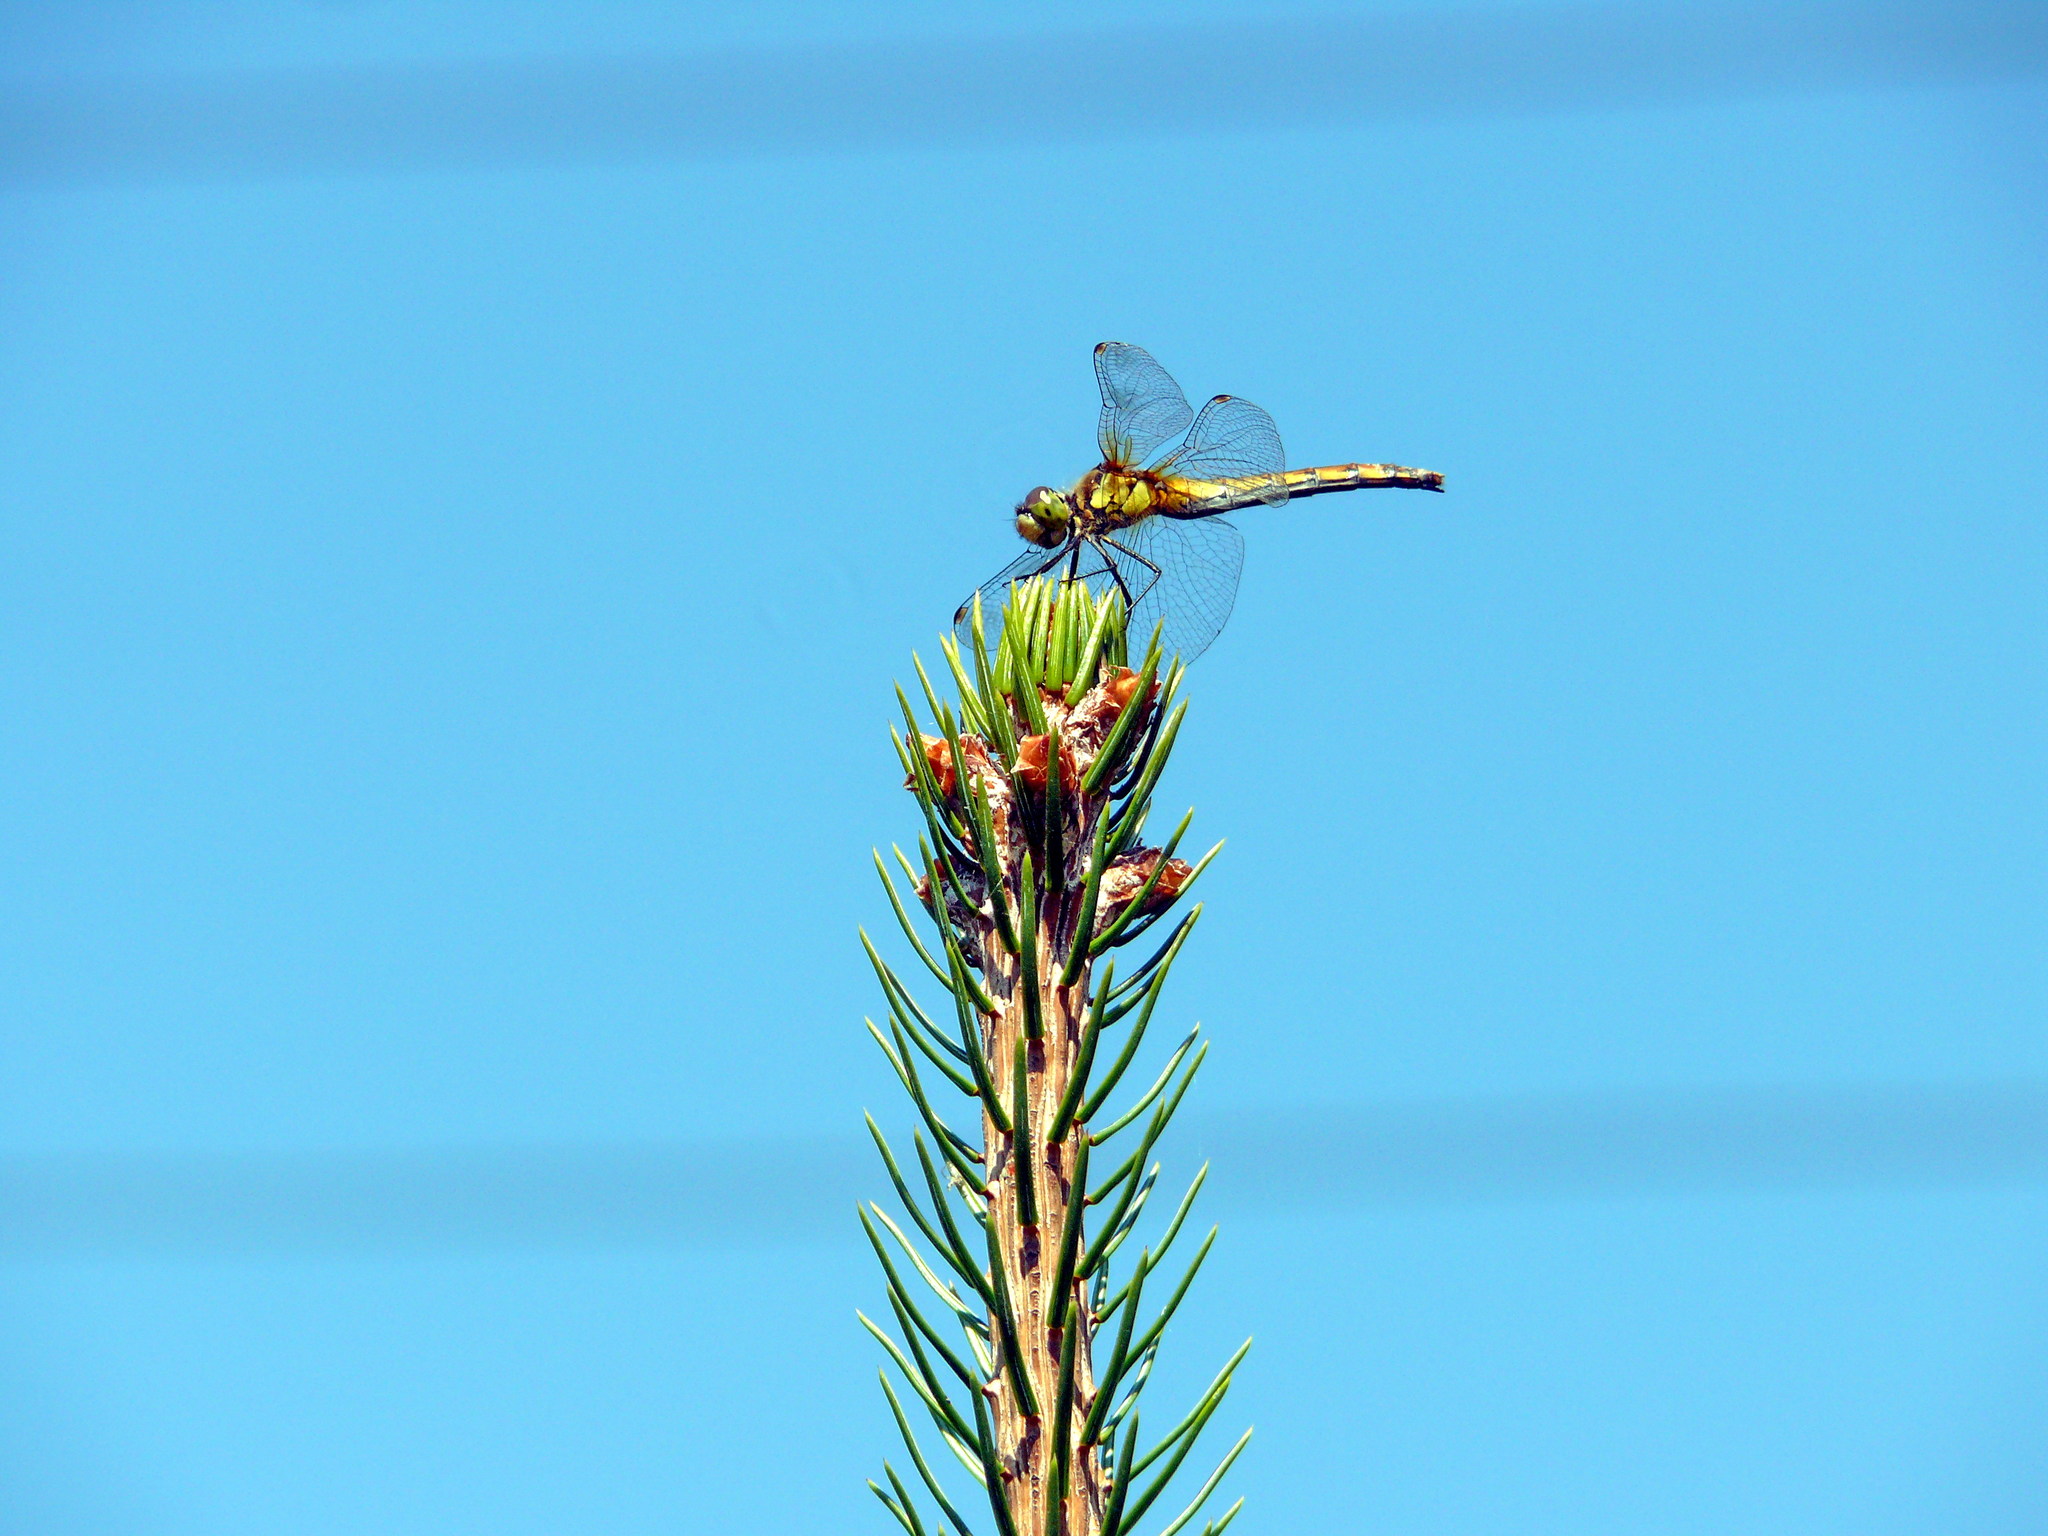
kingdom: Animalia
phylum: Arthropoda
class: Insecta
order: Odonata
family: Libellulidae
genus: Sympetrum
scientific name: Sympetrum cordulegaster
